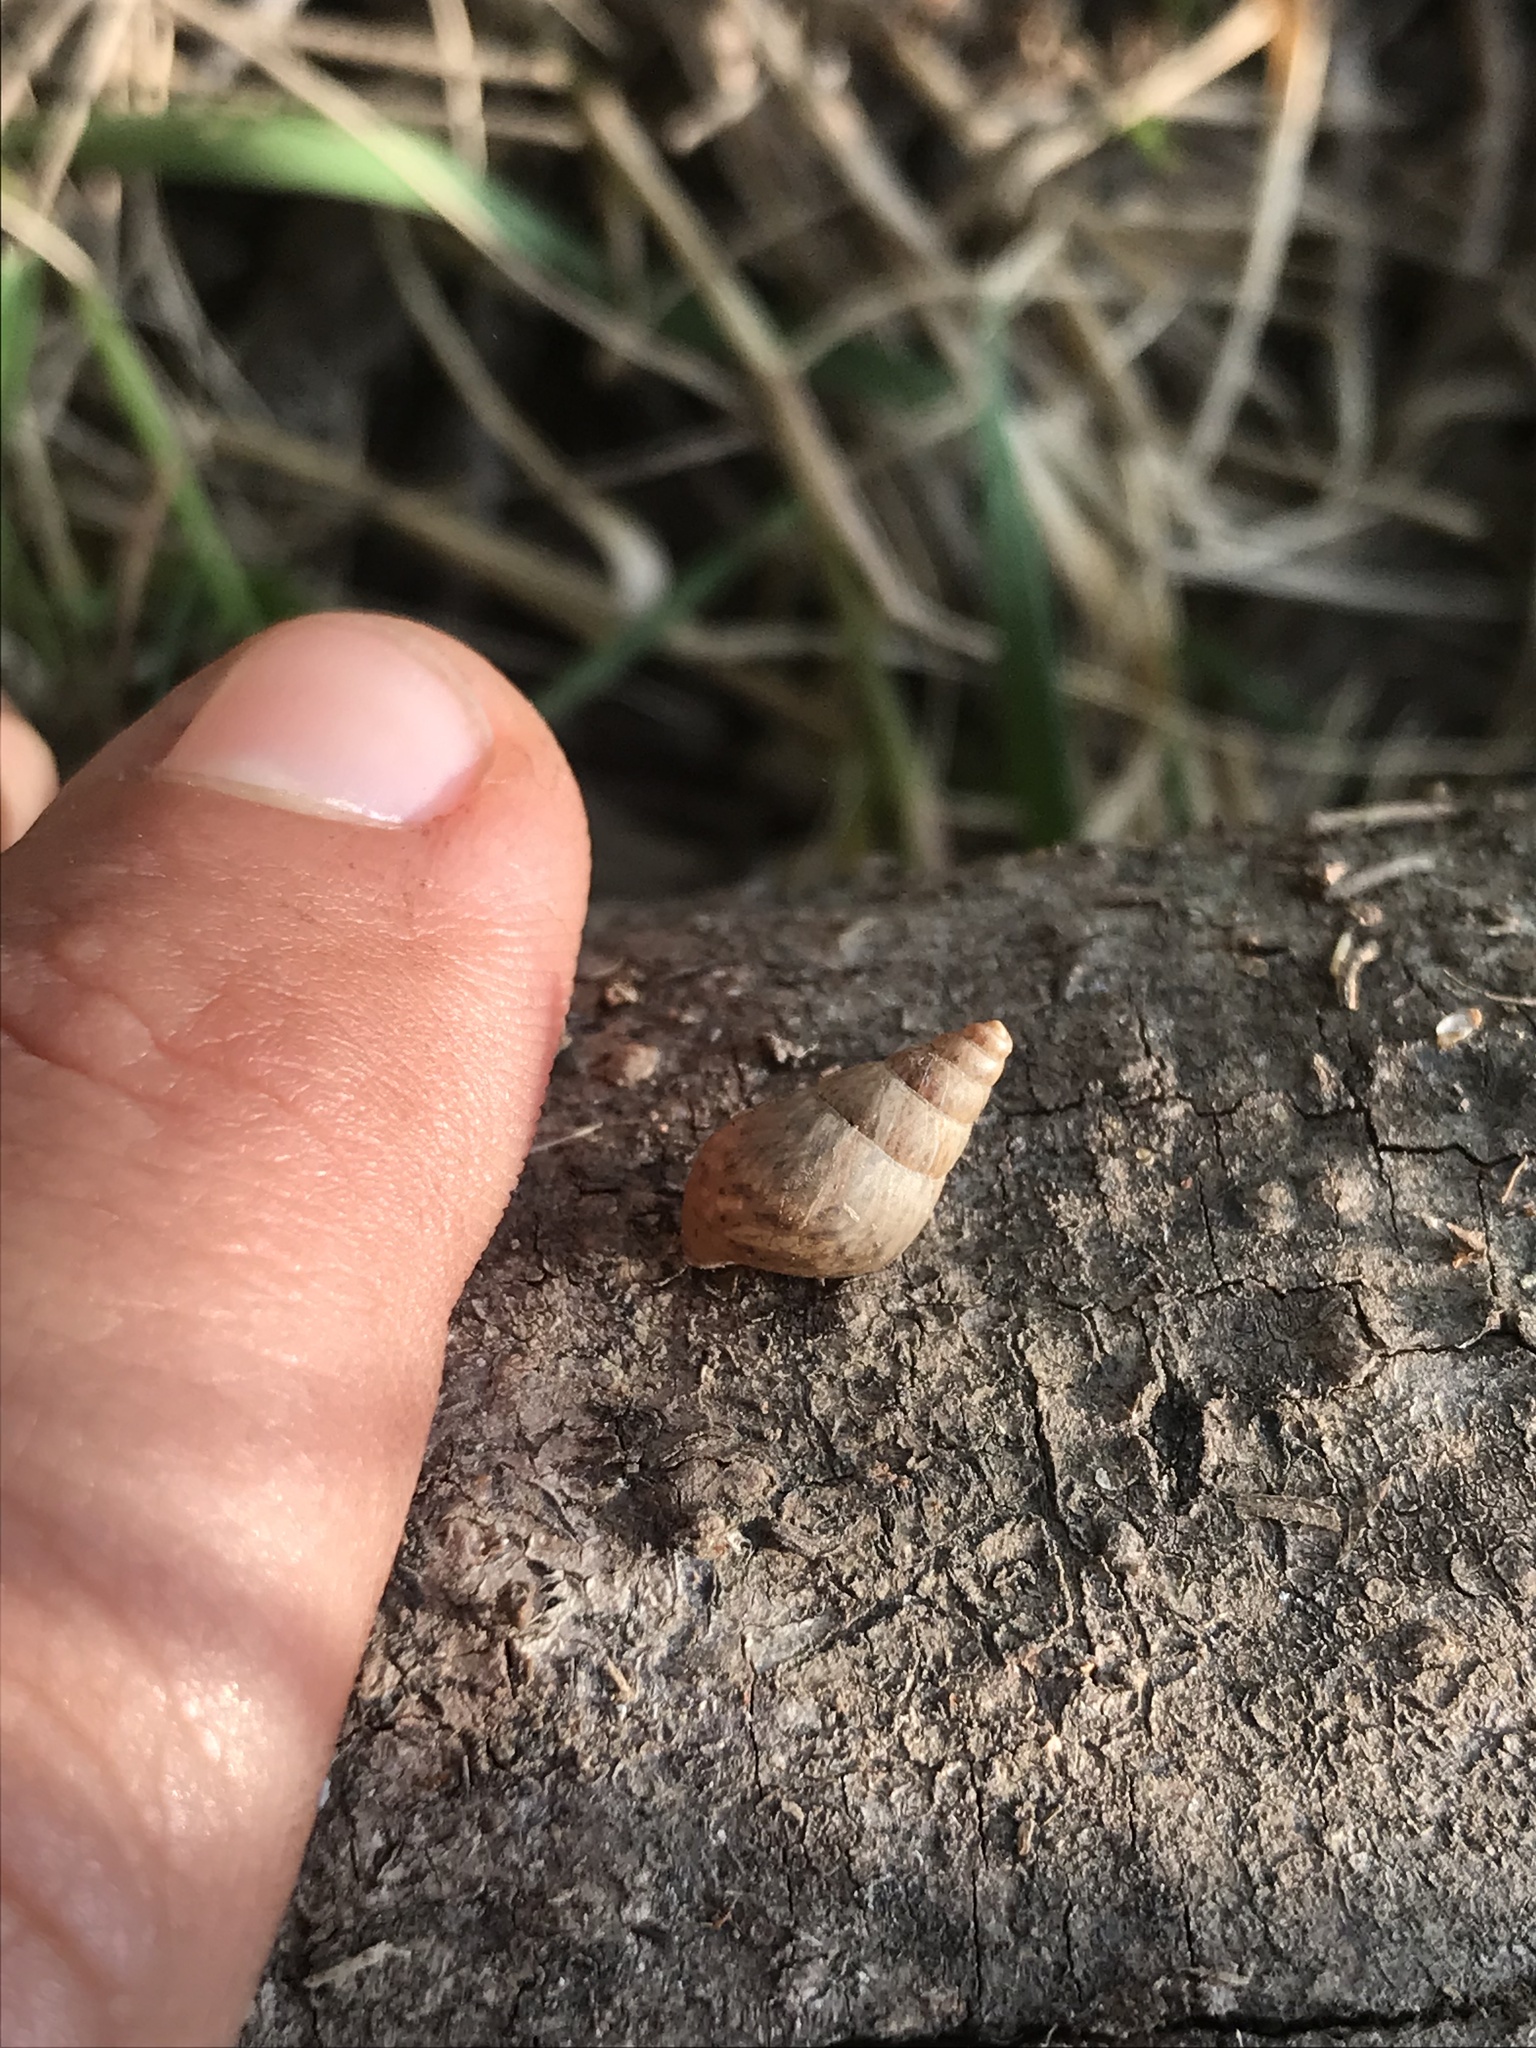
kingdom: Animalia
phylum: Mollusca
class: Gastropoda
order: Stylommatophora
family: Bulimulidae
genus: Bulimulus
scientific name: Bulimulus bonariensis
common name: Snail
